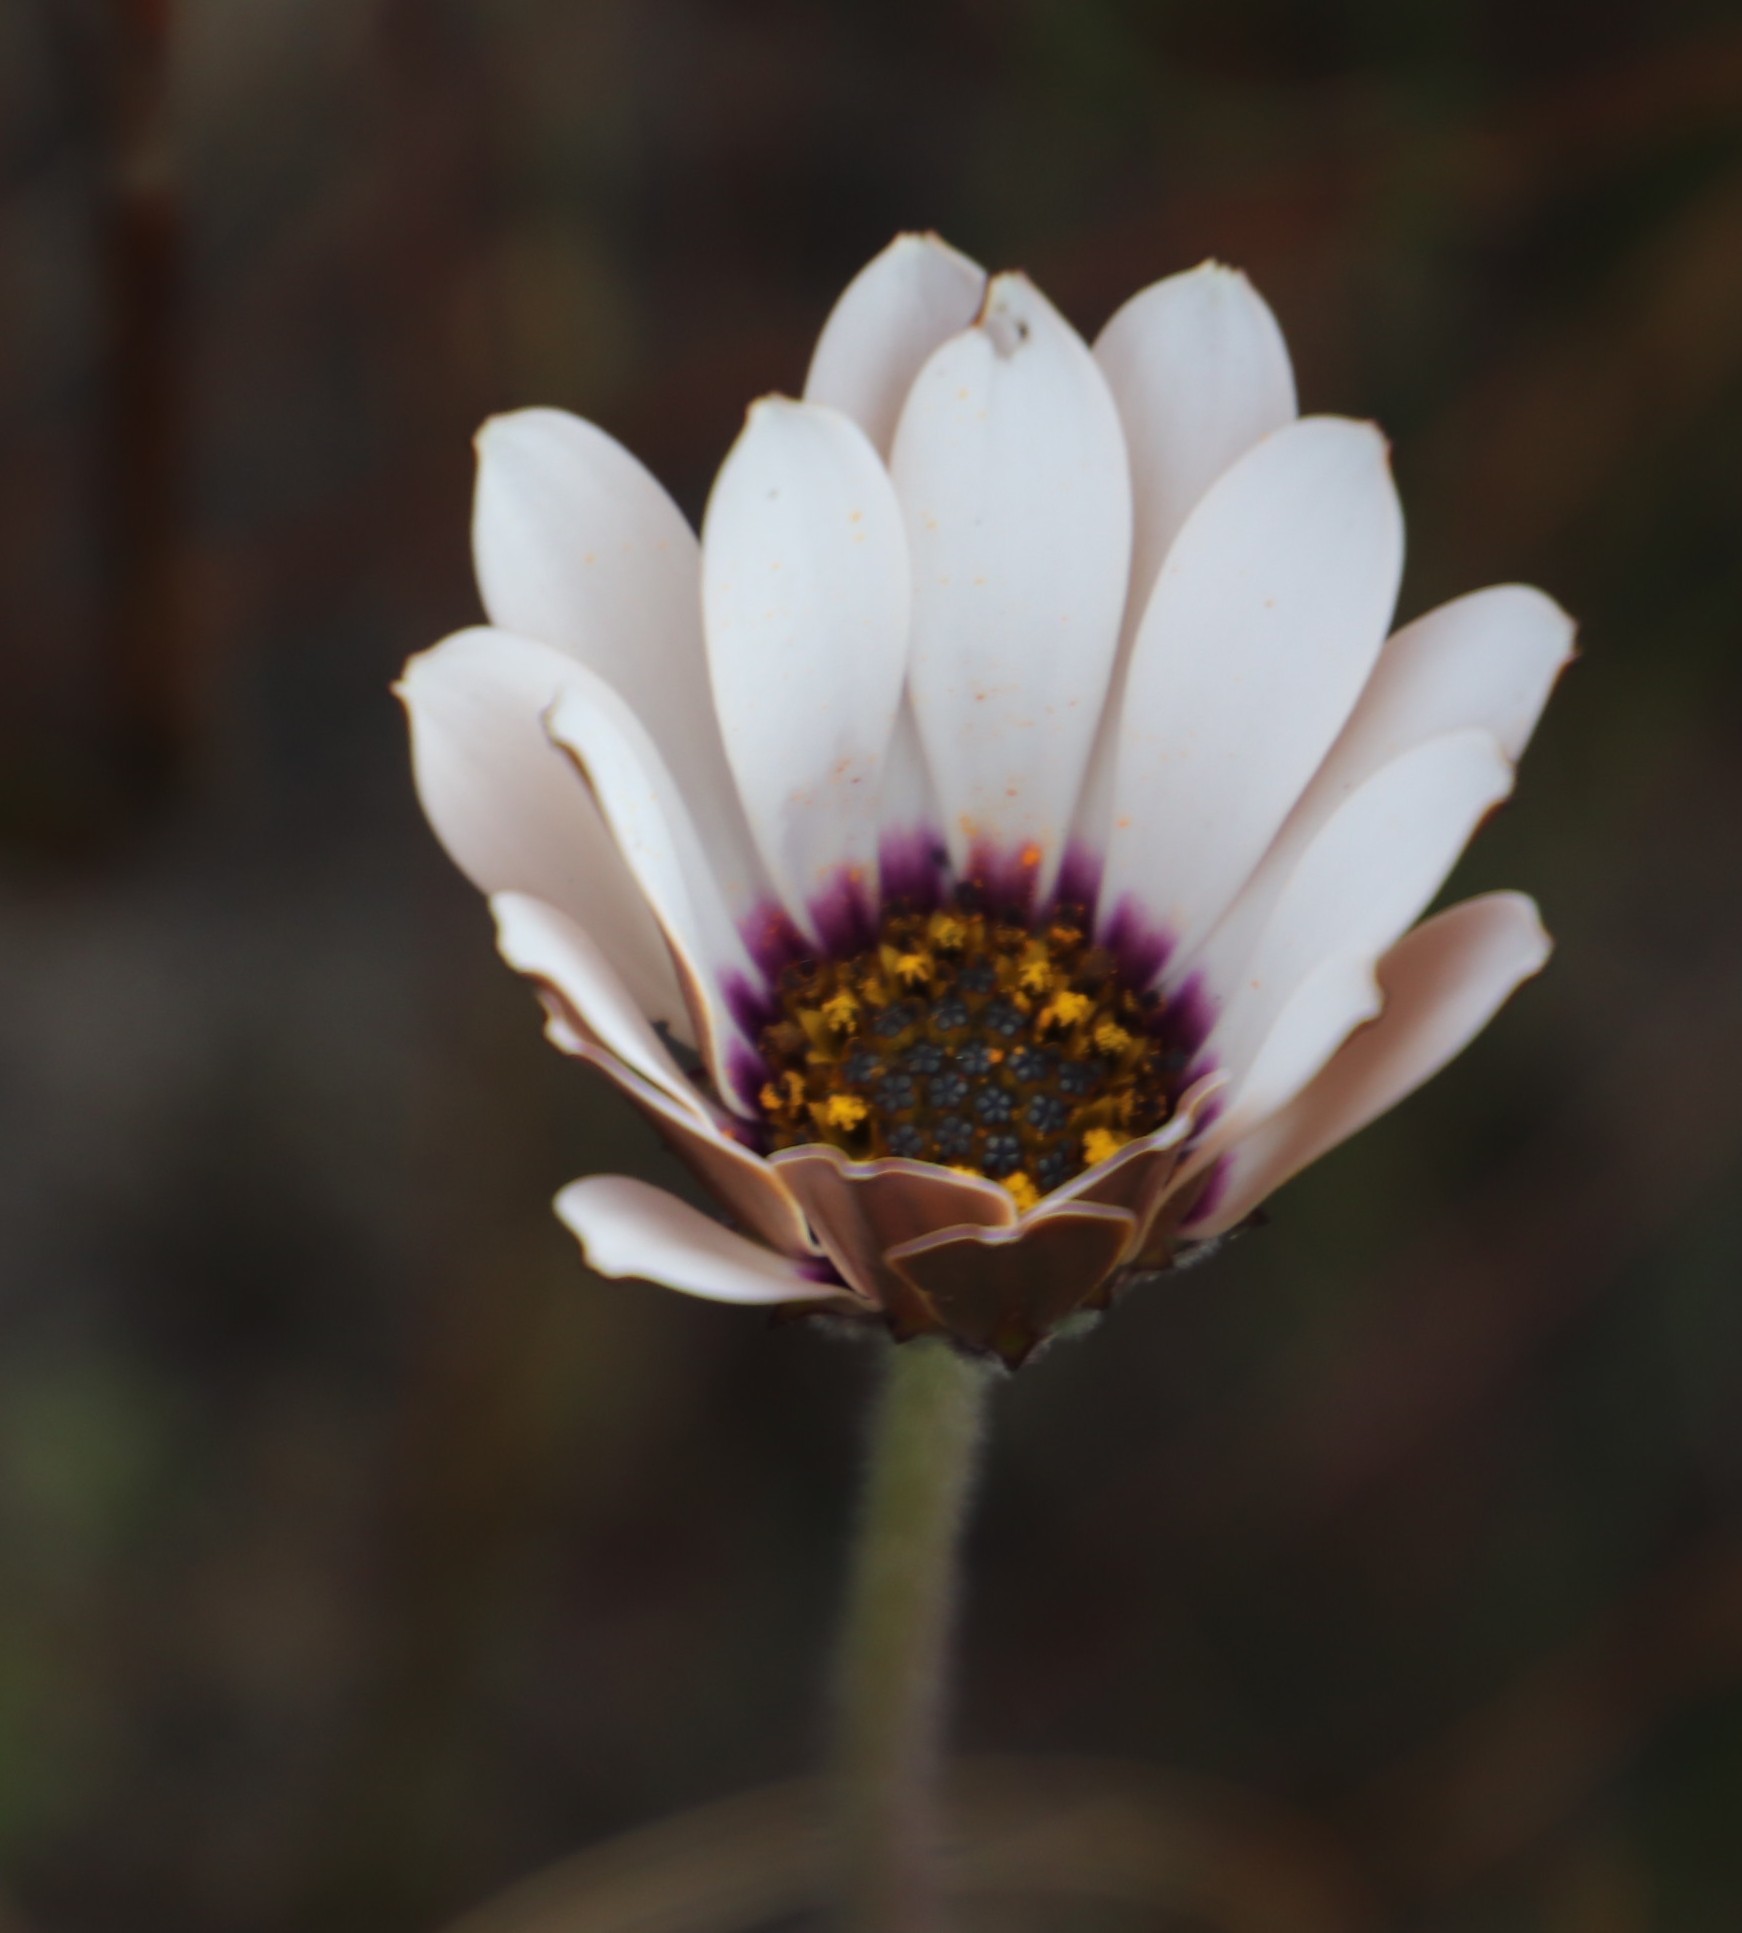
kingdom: Plantae
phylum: Tracheophyta
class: Magnoliopsida
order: Asterales
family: Asteraceae
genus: Dimorphotheca
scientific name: Dimorphotheca nudicaulis
